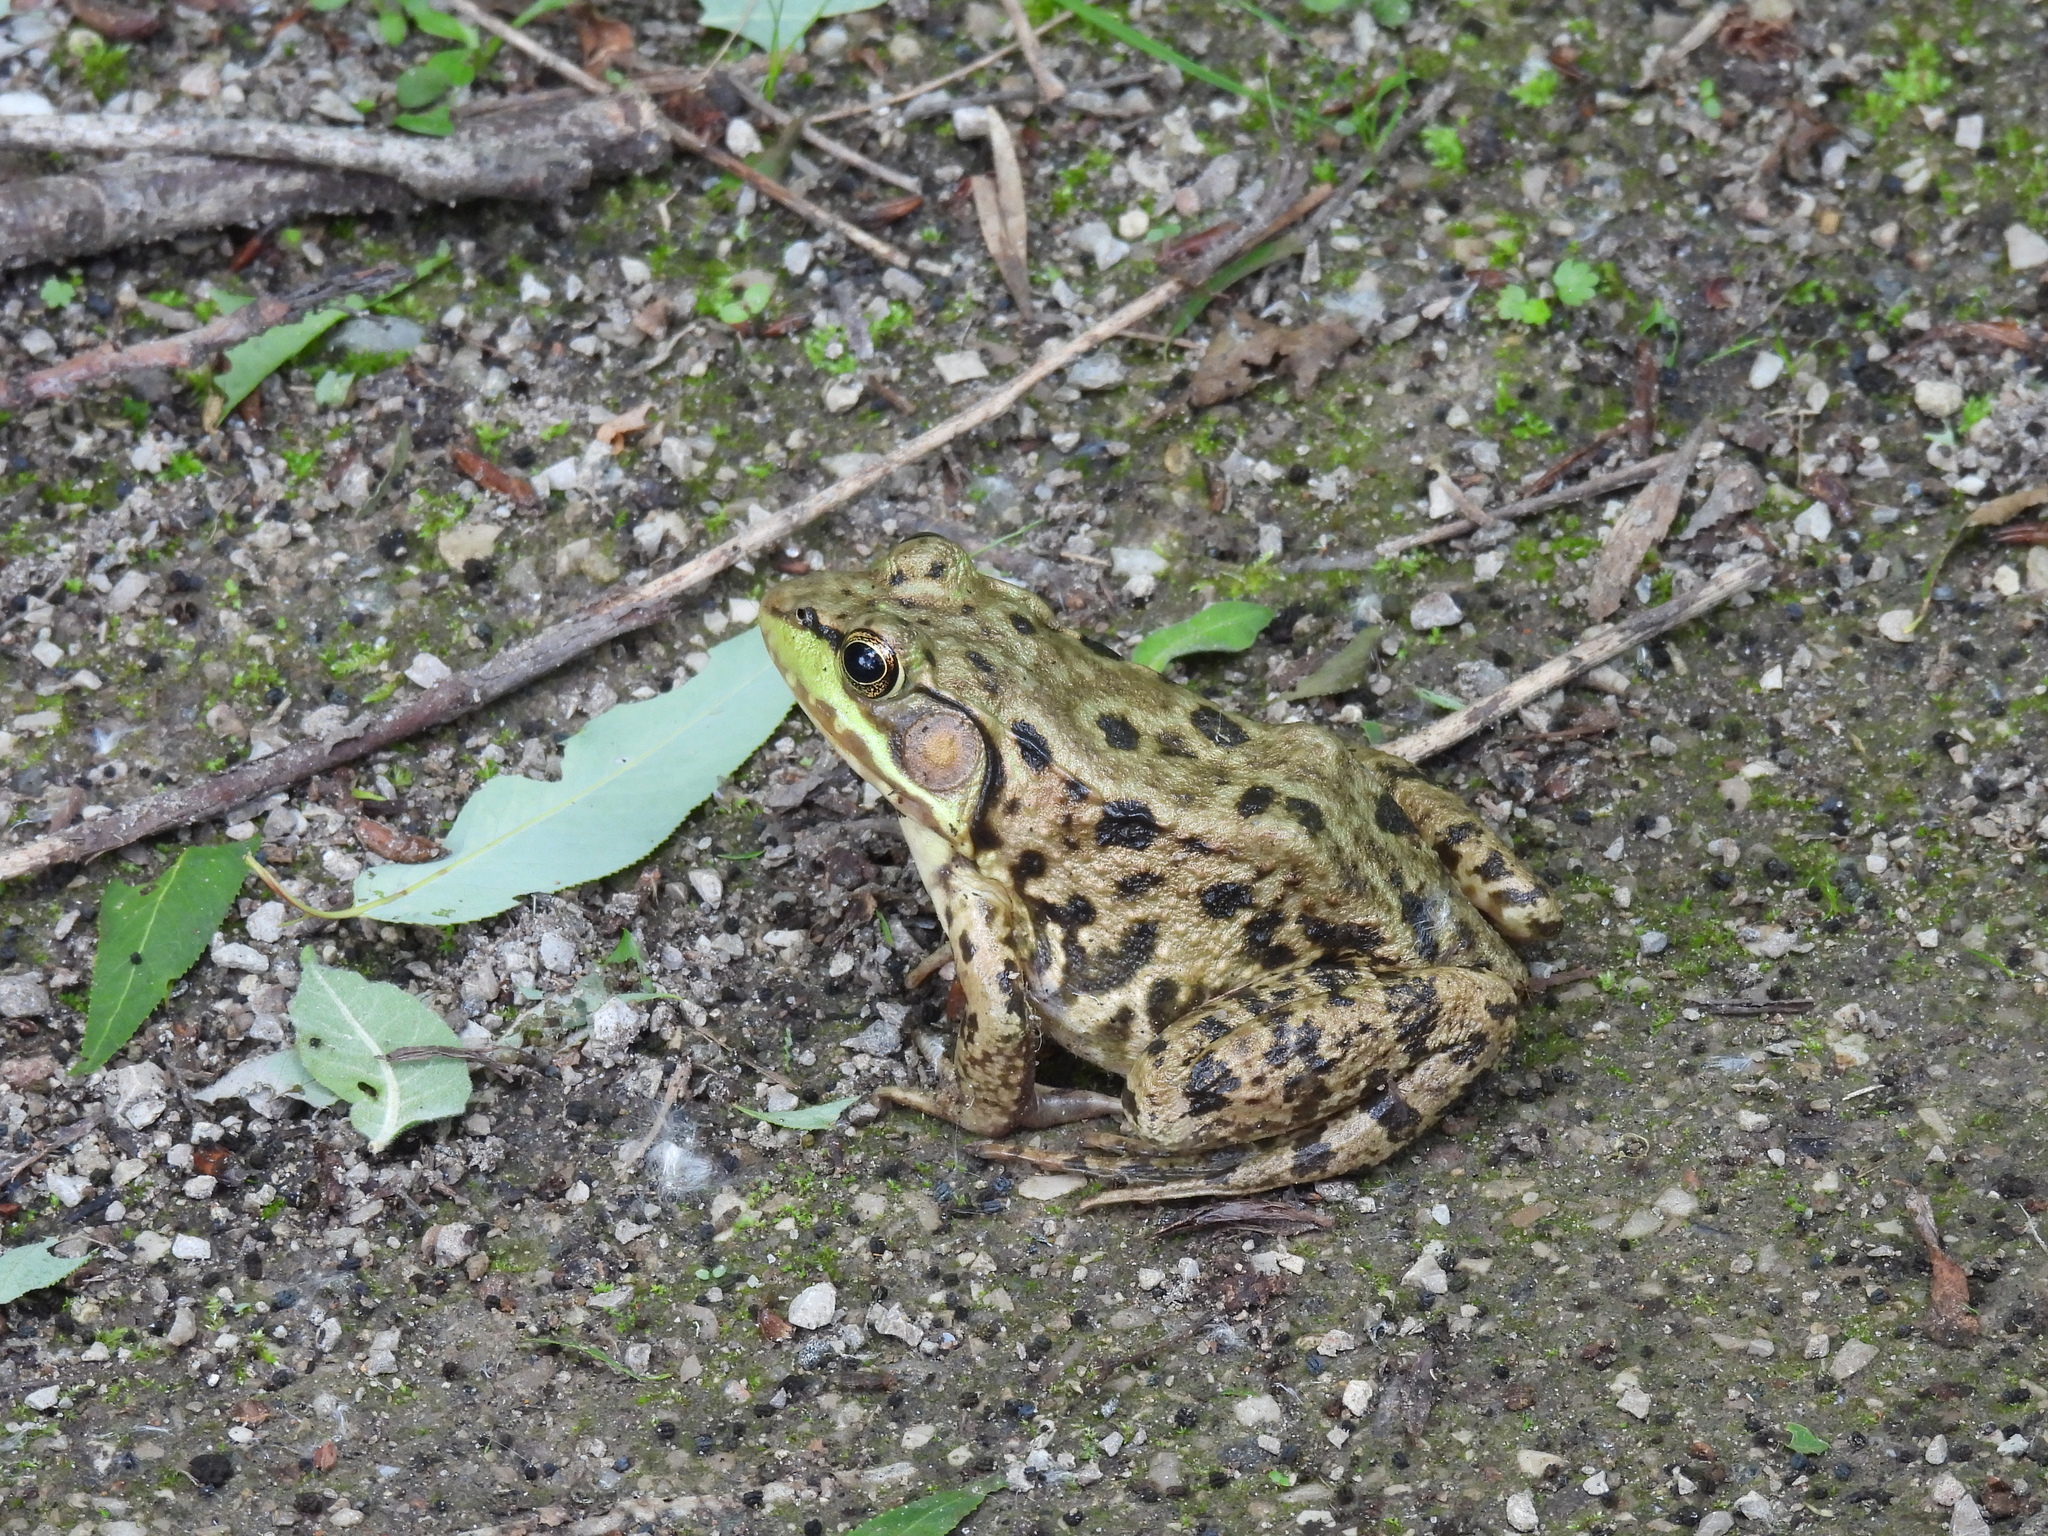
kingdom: Animalia
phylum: Chordata
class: Amphibia
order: Anura
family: Ranidae
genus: Lithobates
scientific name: Lithobates clamitans
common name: Green frog
